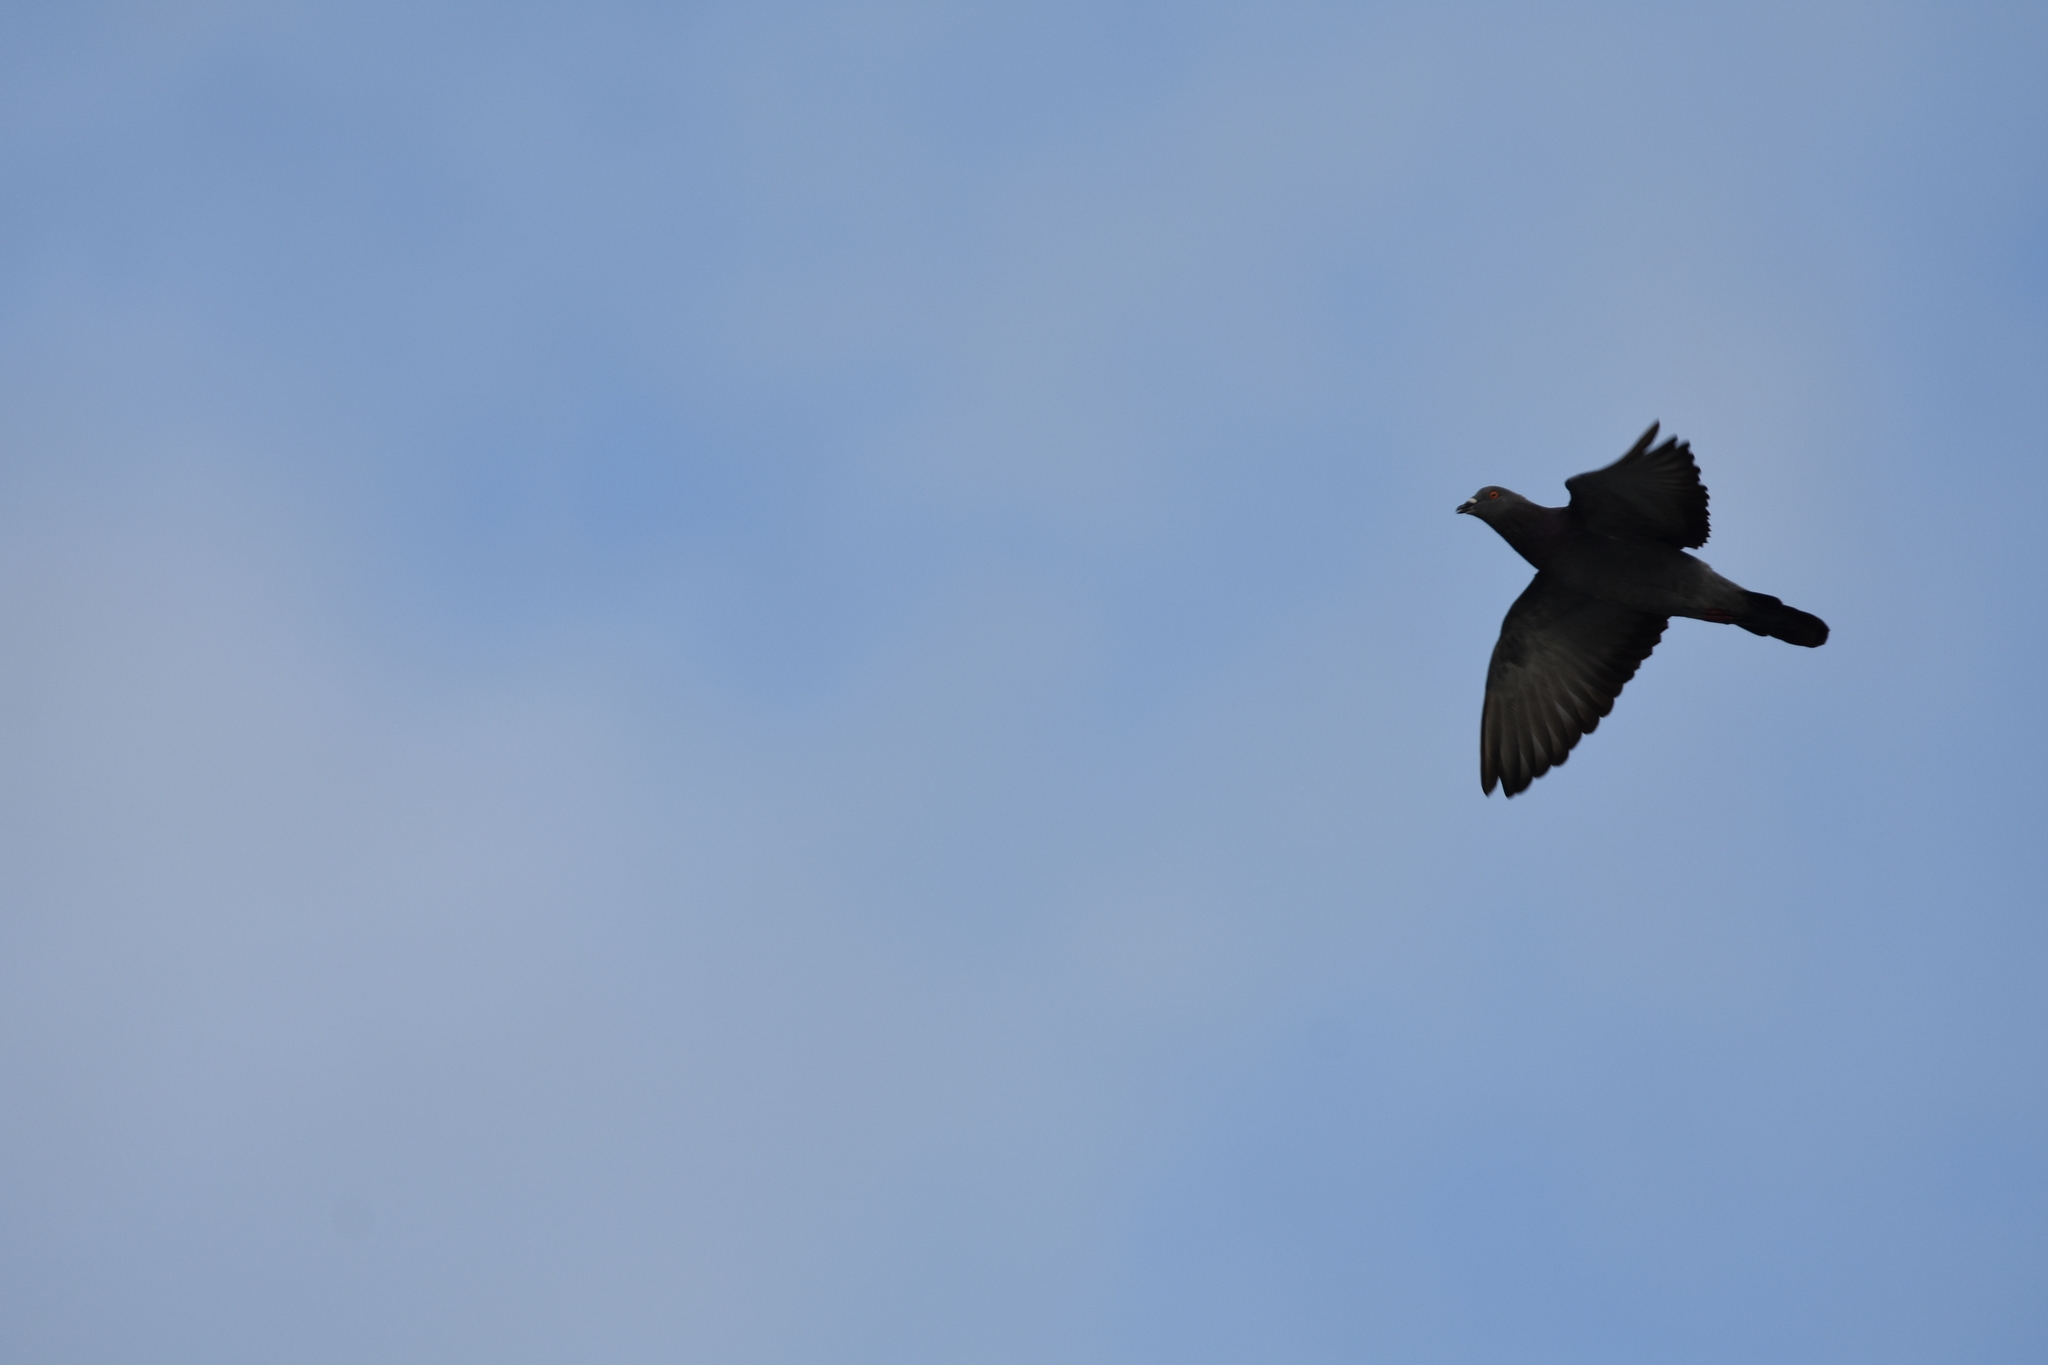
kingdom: Animalia
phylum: Chordata
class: Aves
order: Columbiformes
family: Columbidae
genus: Columba
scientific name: Columba livia
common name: Rock pigeon
